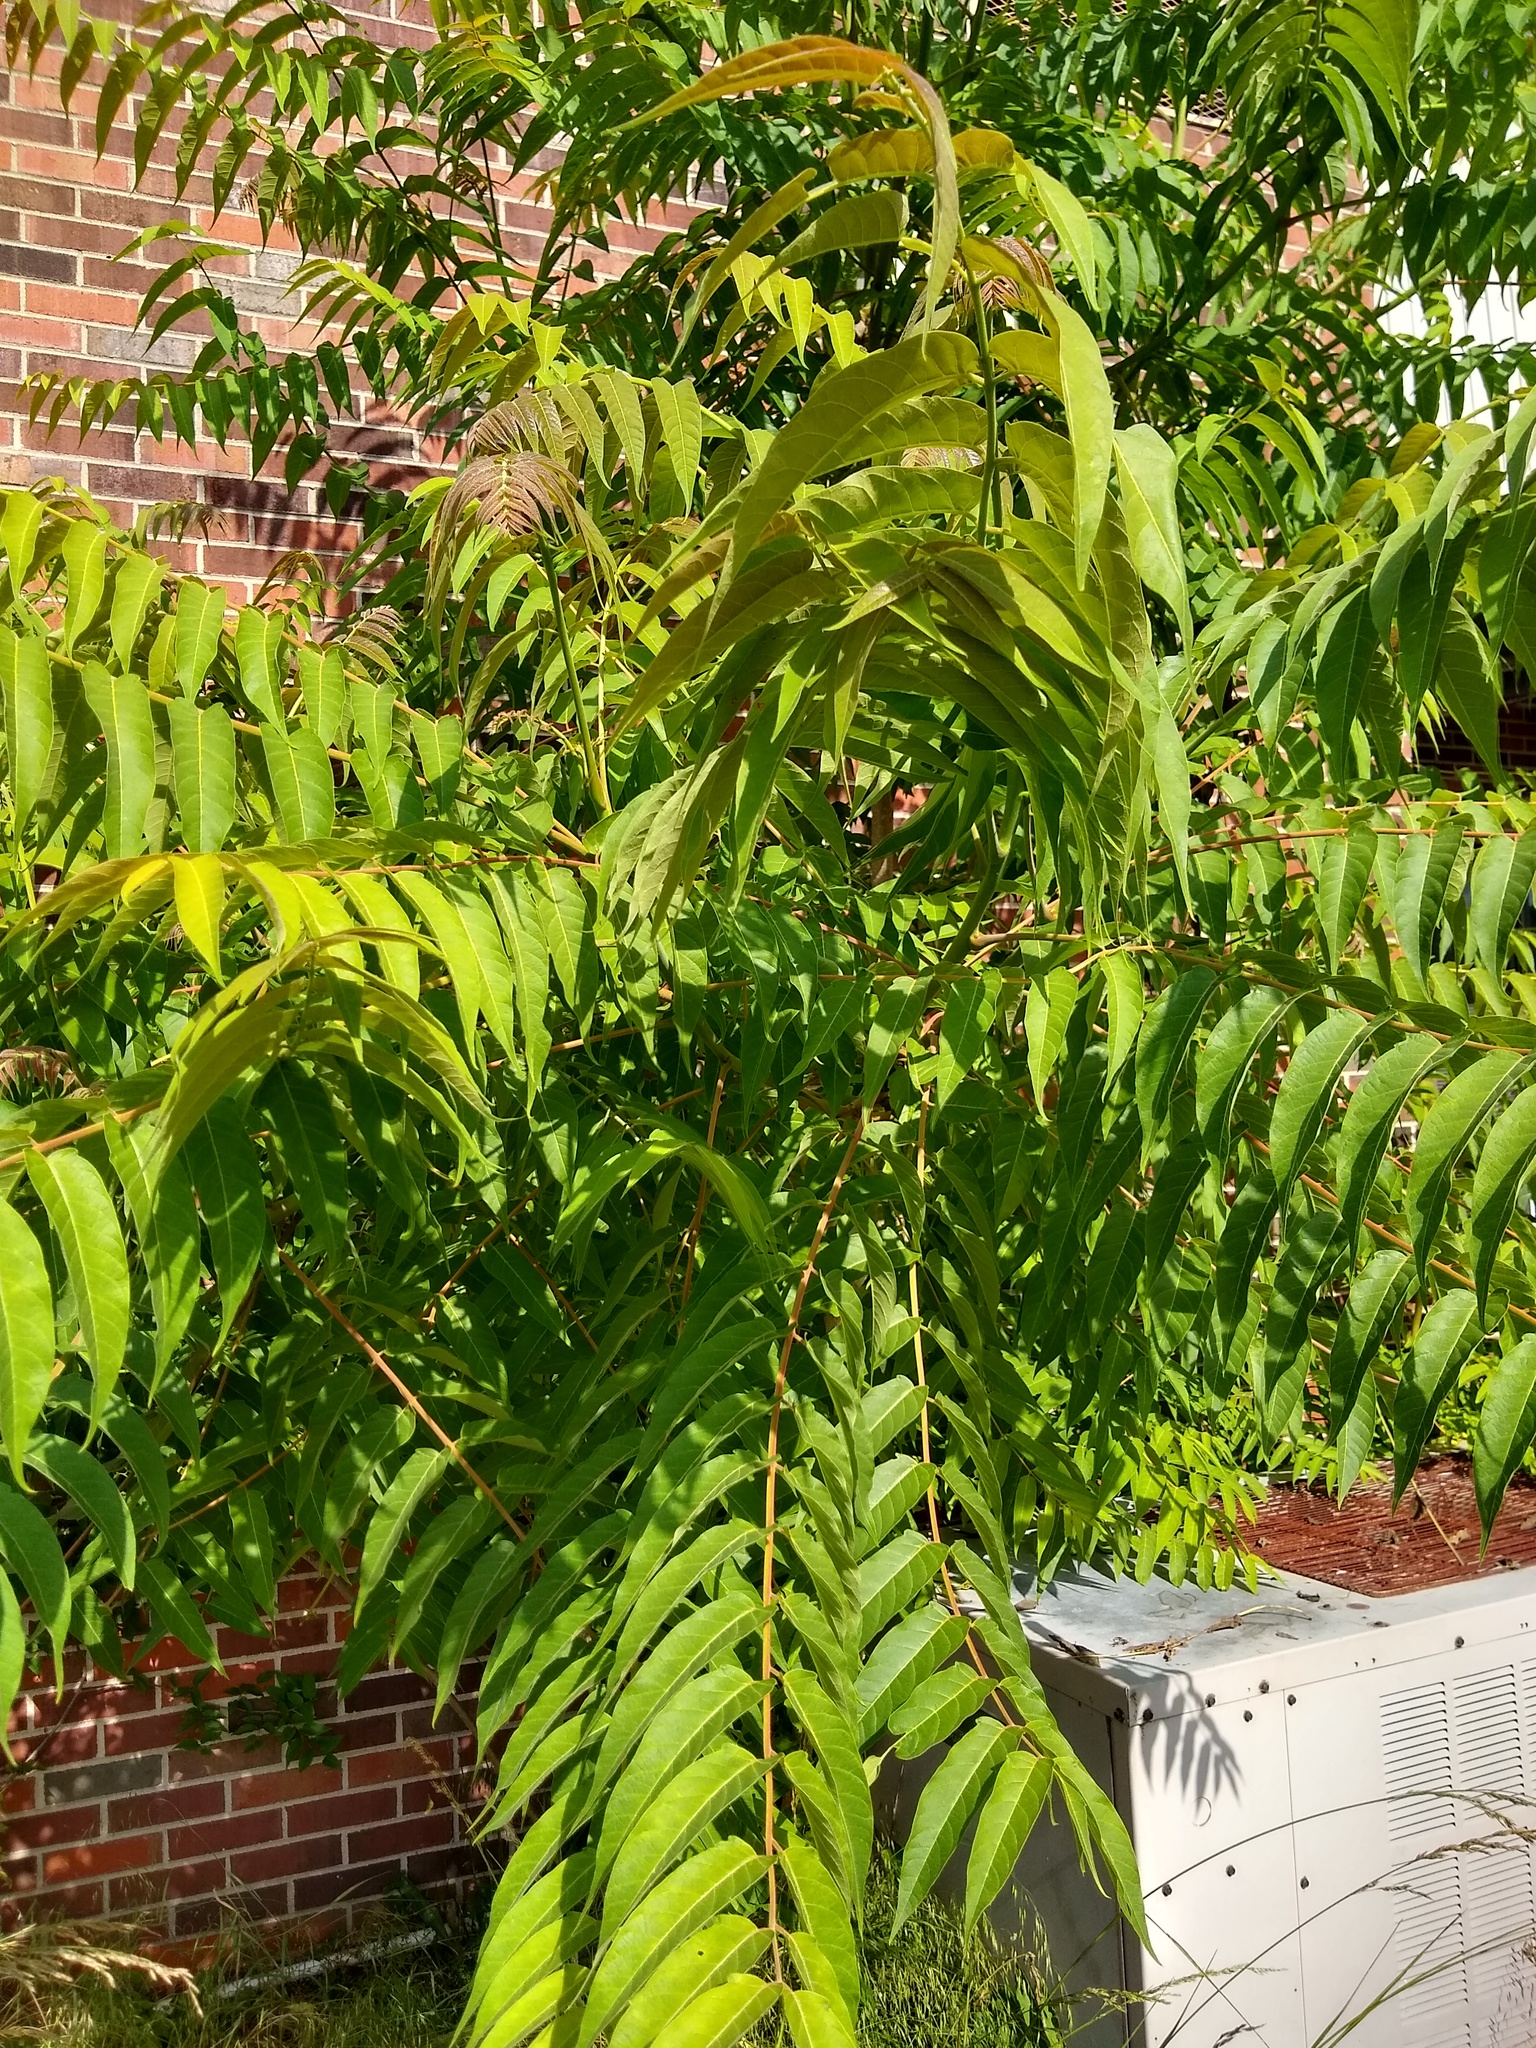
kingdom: Plantae
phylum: Tracheophyta
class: Magnoliopsida
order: Sapindales
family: Simaroubaceae
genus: Ailanthus
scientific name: Ailanthus altissima
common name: Tree-of-heaven
